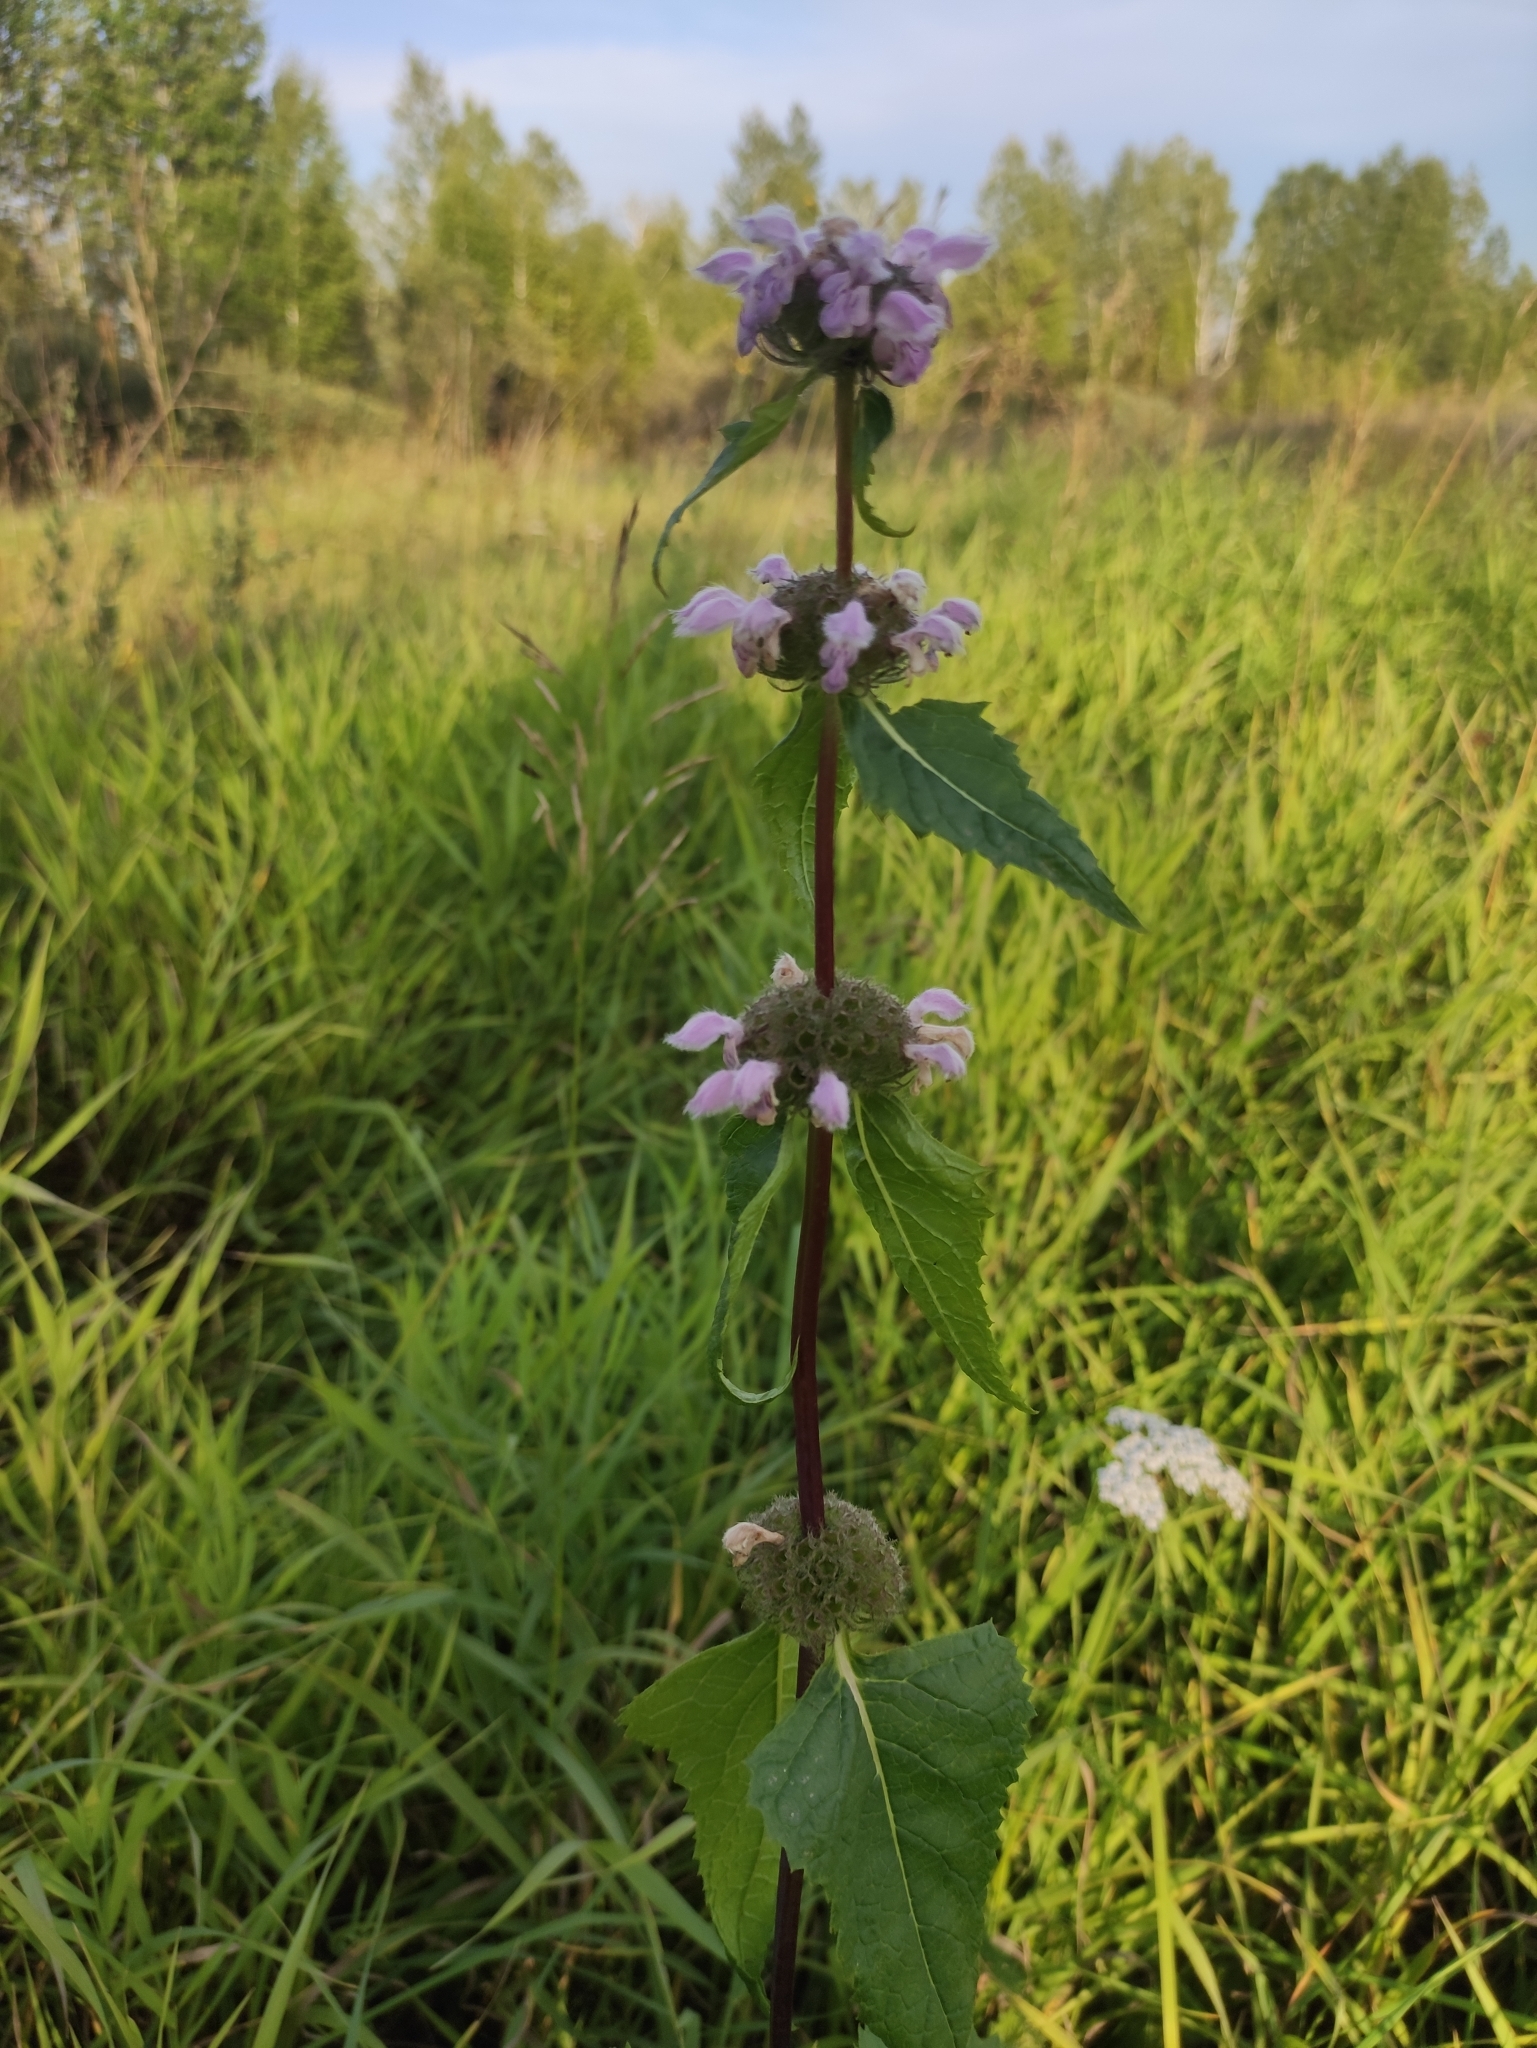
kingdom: Plantae
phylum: Tracheophyta
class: Magnoliopsida
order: Lamiales
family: Lamiaceae
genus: Phlomoides
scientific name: Phlomoides tuberosa
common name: Tuberous jerusalem sage
